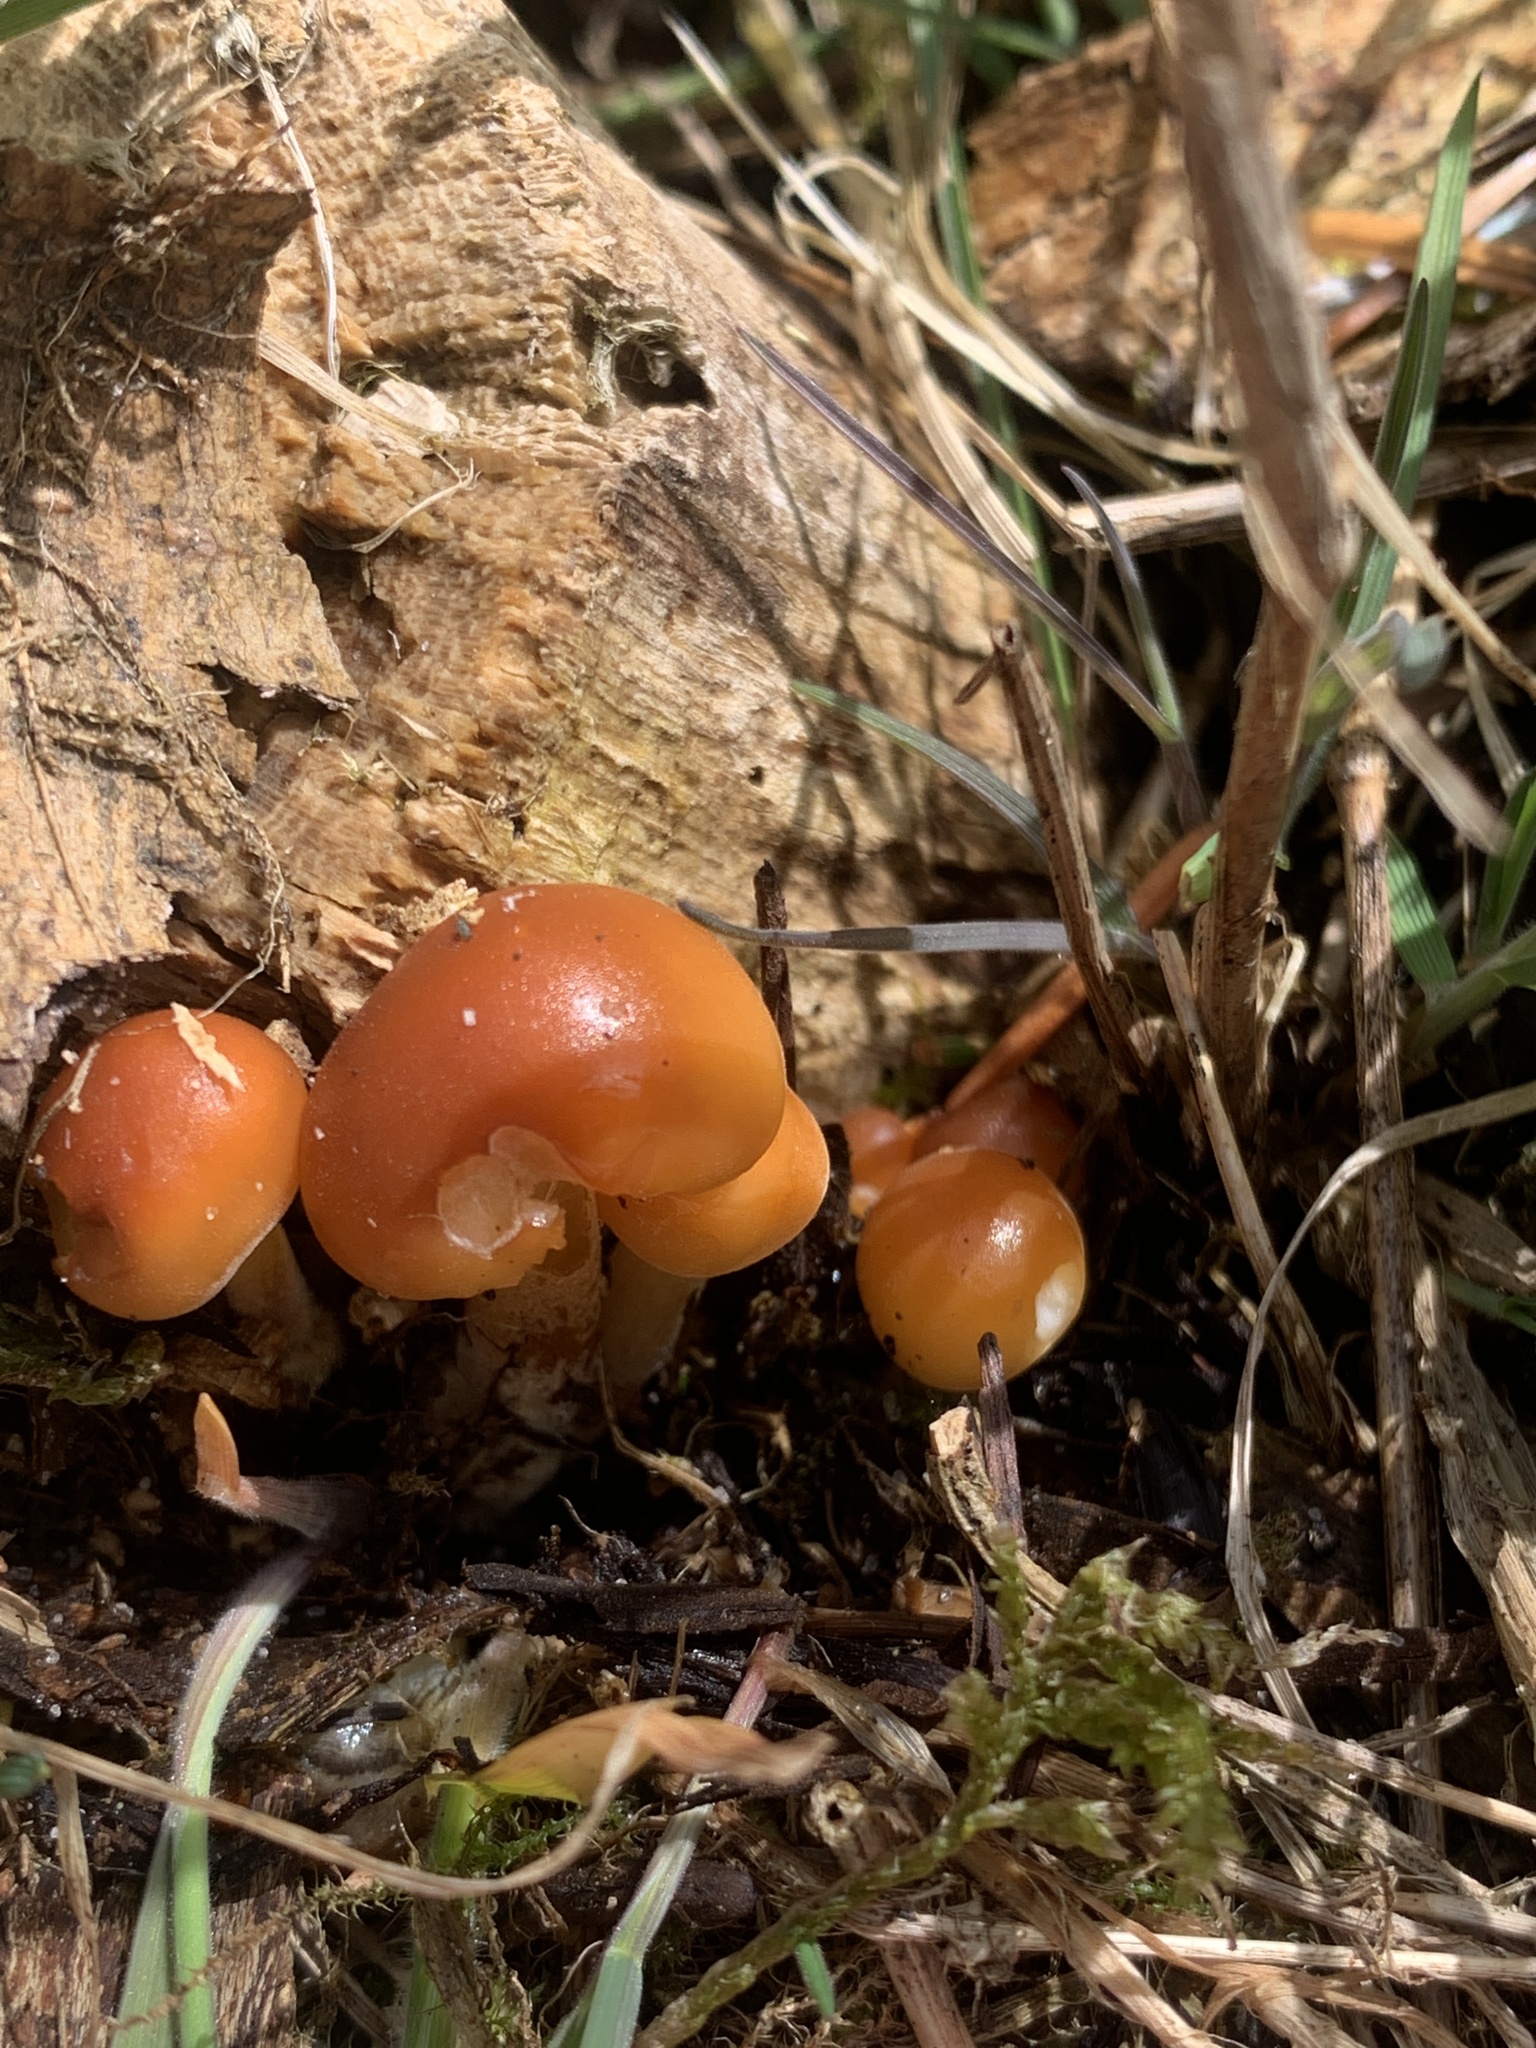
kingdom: Fungi
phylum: Basidiomycota
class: Agaricomycetes
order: Agaricales
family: Physalacriaceae
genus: Flammulina
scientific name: Flammulina
